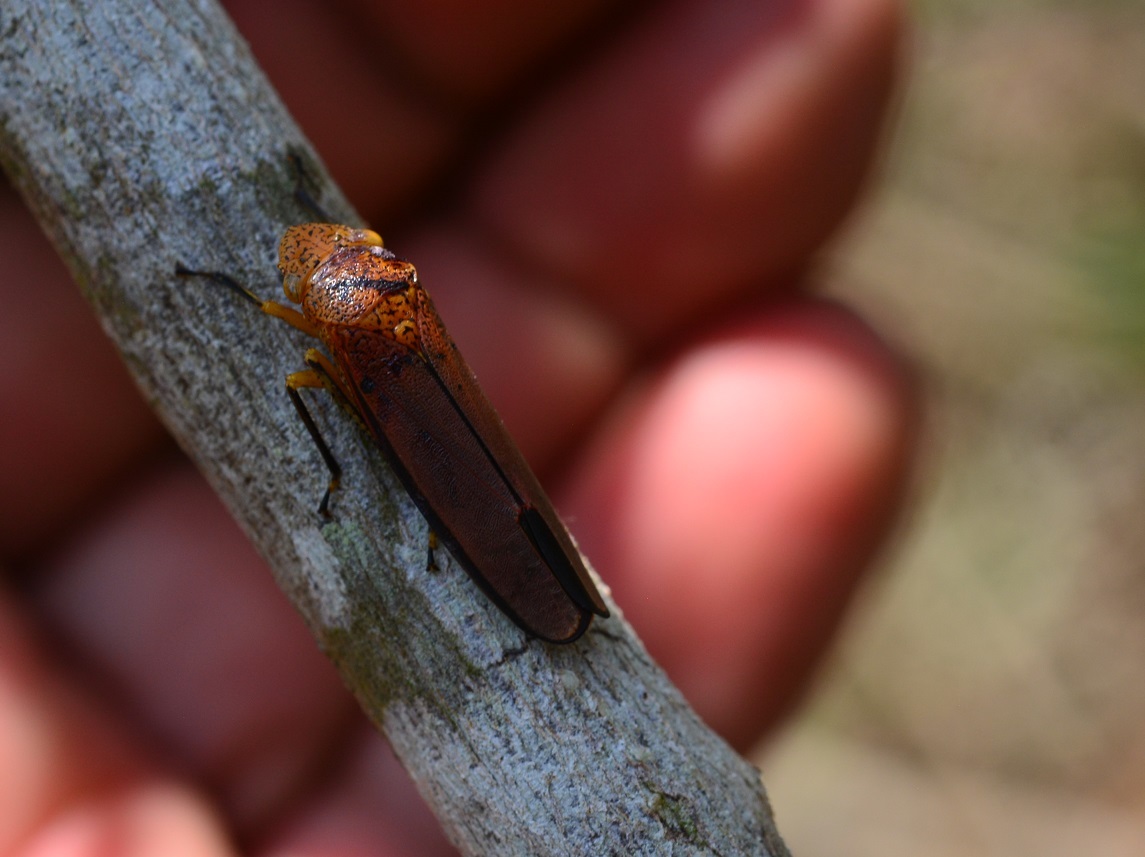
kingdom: Animalia
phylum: Arthropoda
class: Insecta
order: Hemiptera
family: Cicadellidae
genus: Cyrtodisca
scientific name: Cyrtodisca major
